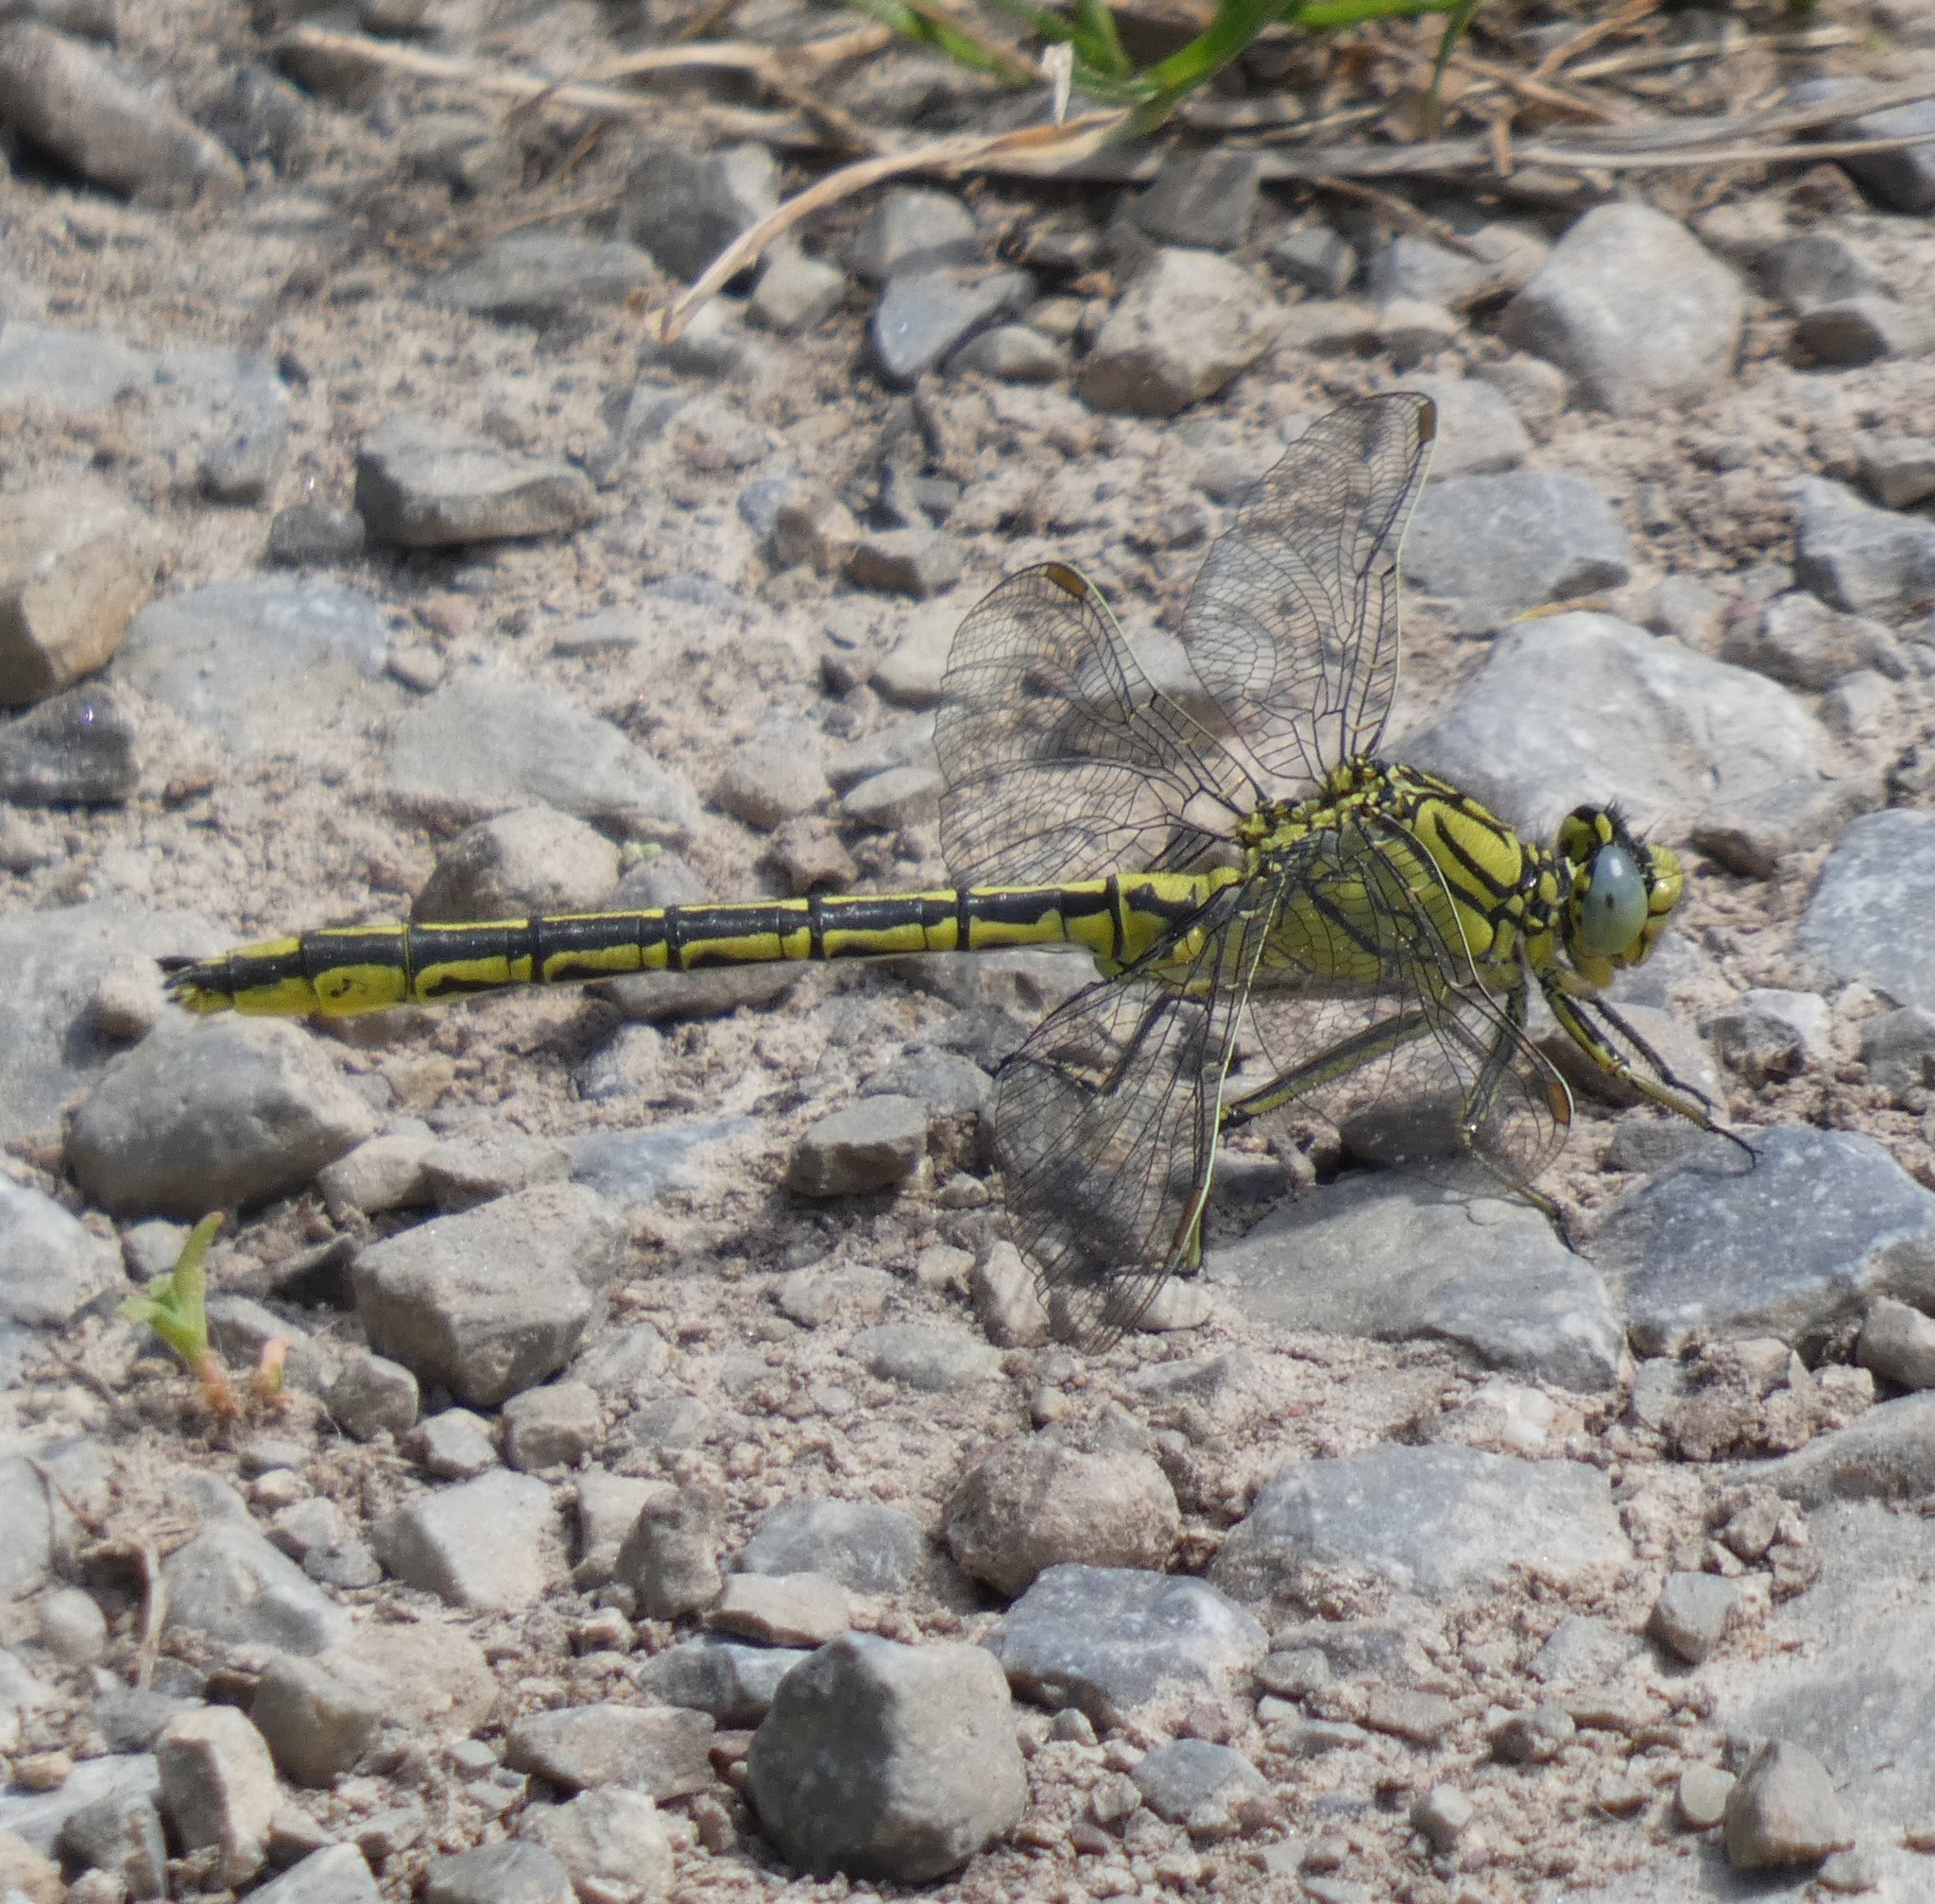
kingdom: Animalia
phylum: Arthropoda
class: Insecta
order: Odonata
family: Gomphidae
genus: Gomphus
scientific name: Gomphus pulchellus
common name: Western clubtail
